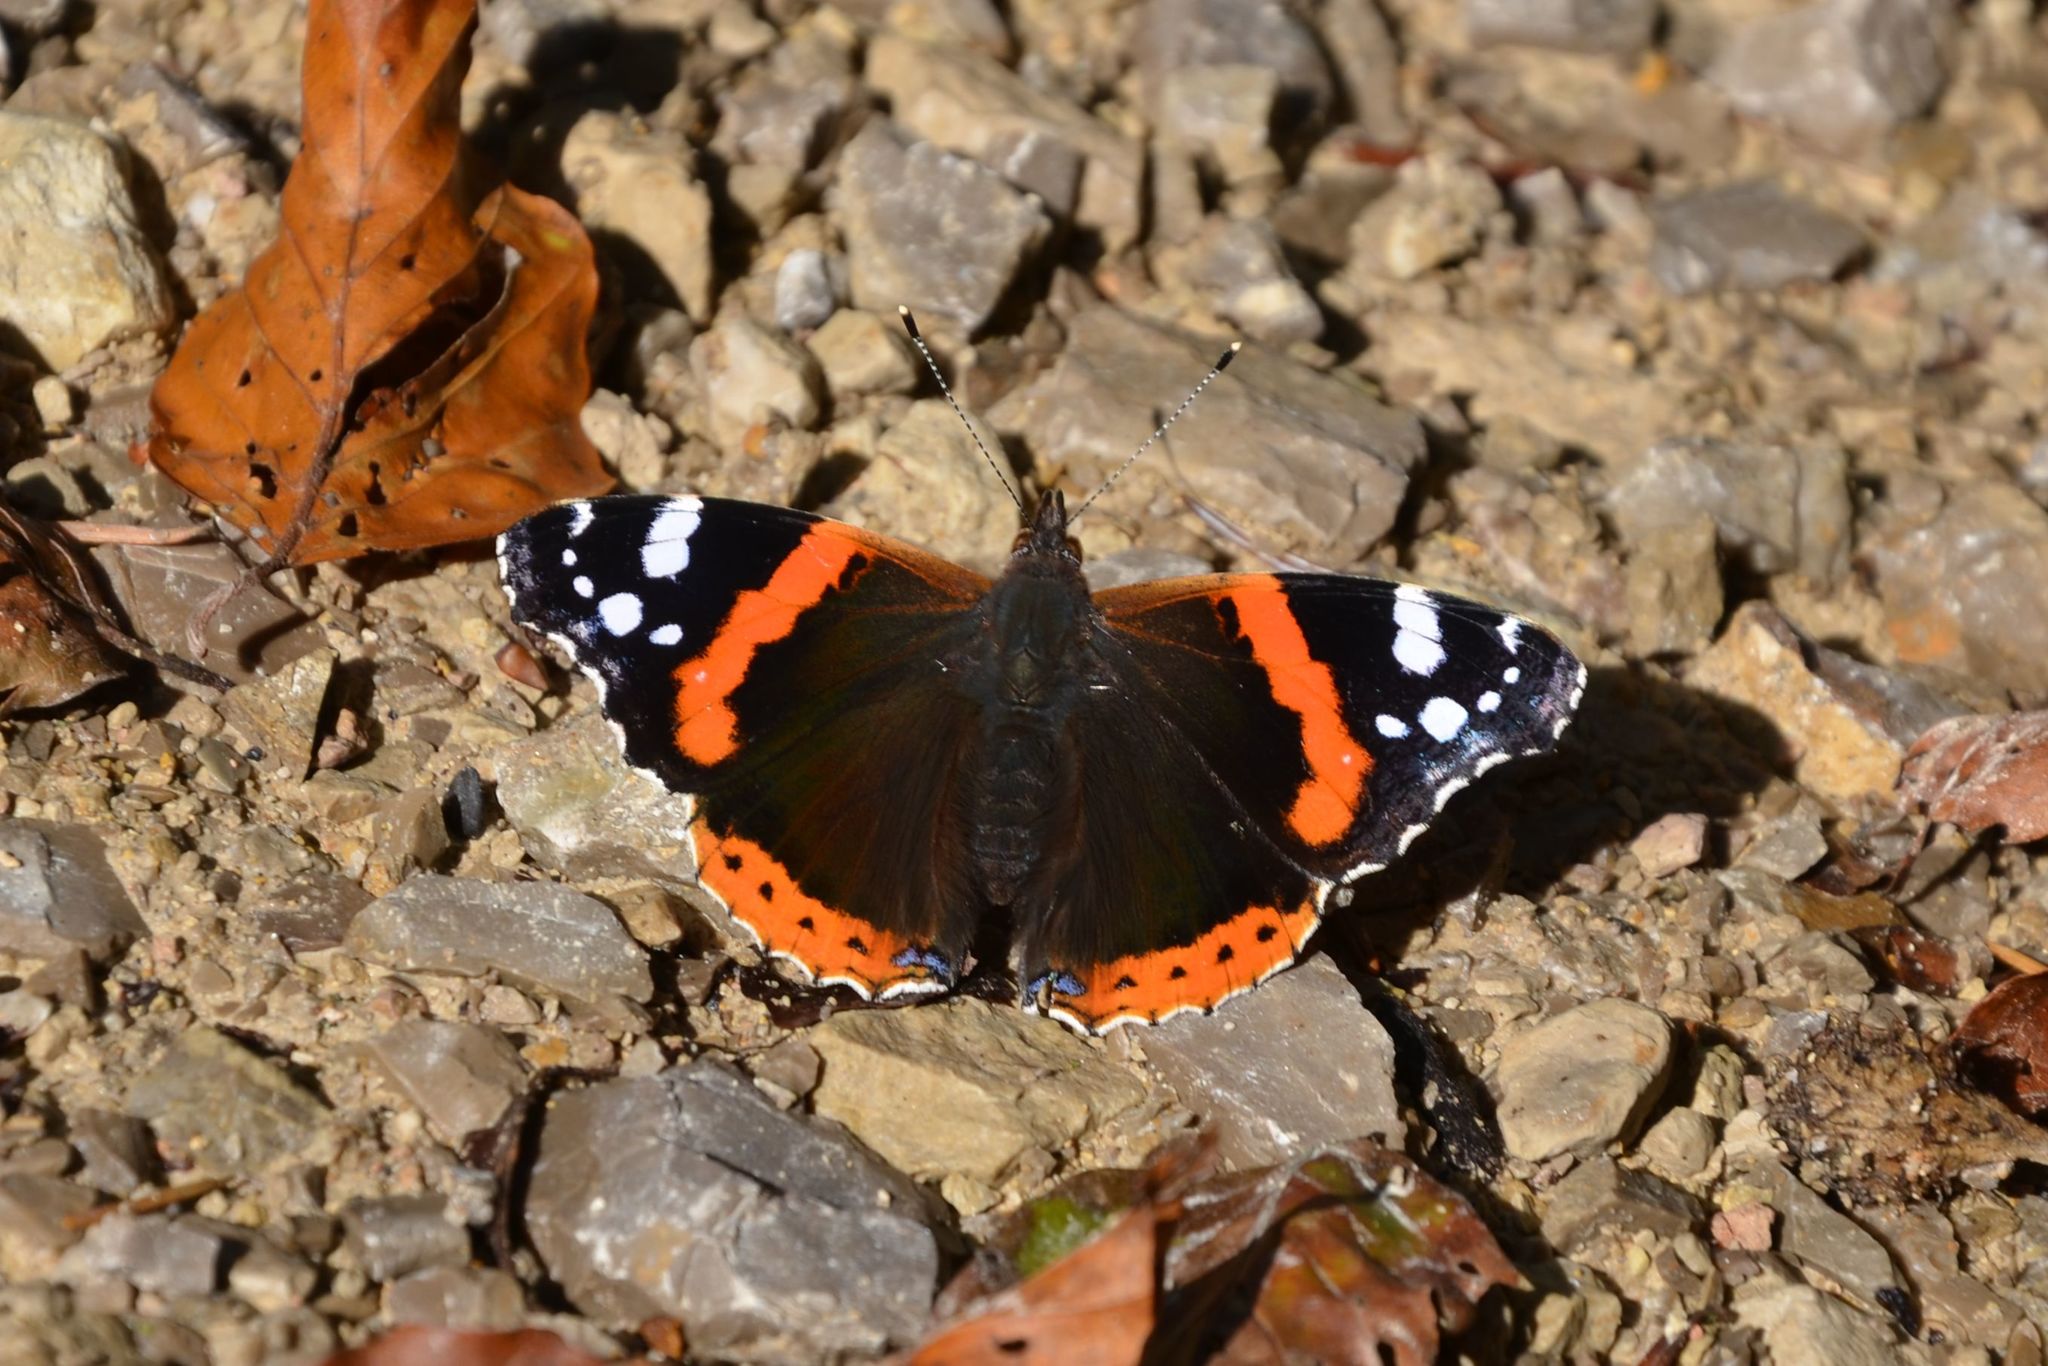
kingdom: Animalia
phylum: Arthropoda
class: Insecta
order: Lepidoptera
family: Nymphalidae
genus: Vanessa
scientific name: Vanessa atalanta
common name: Red admiral
